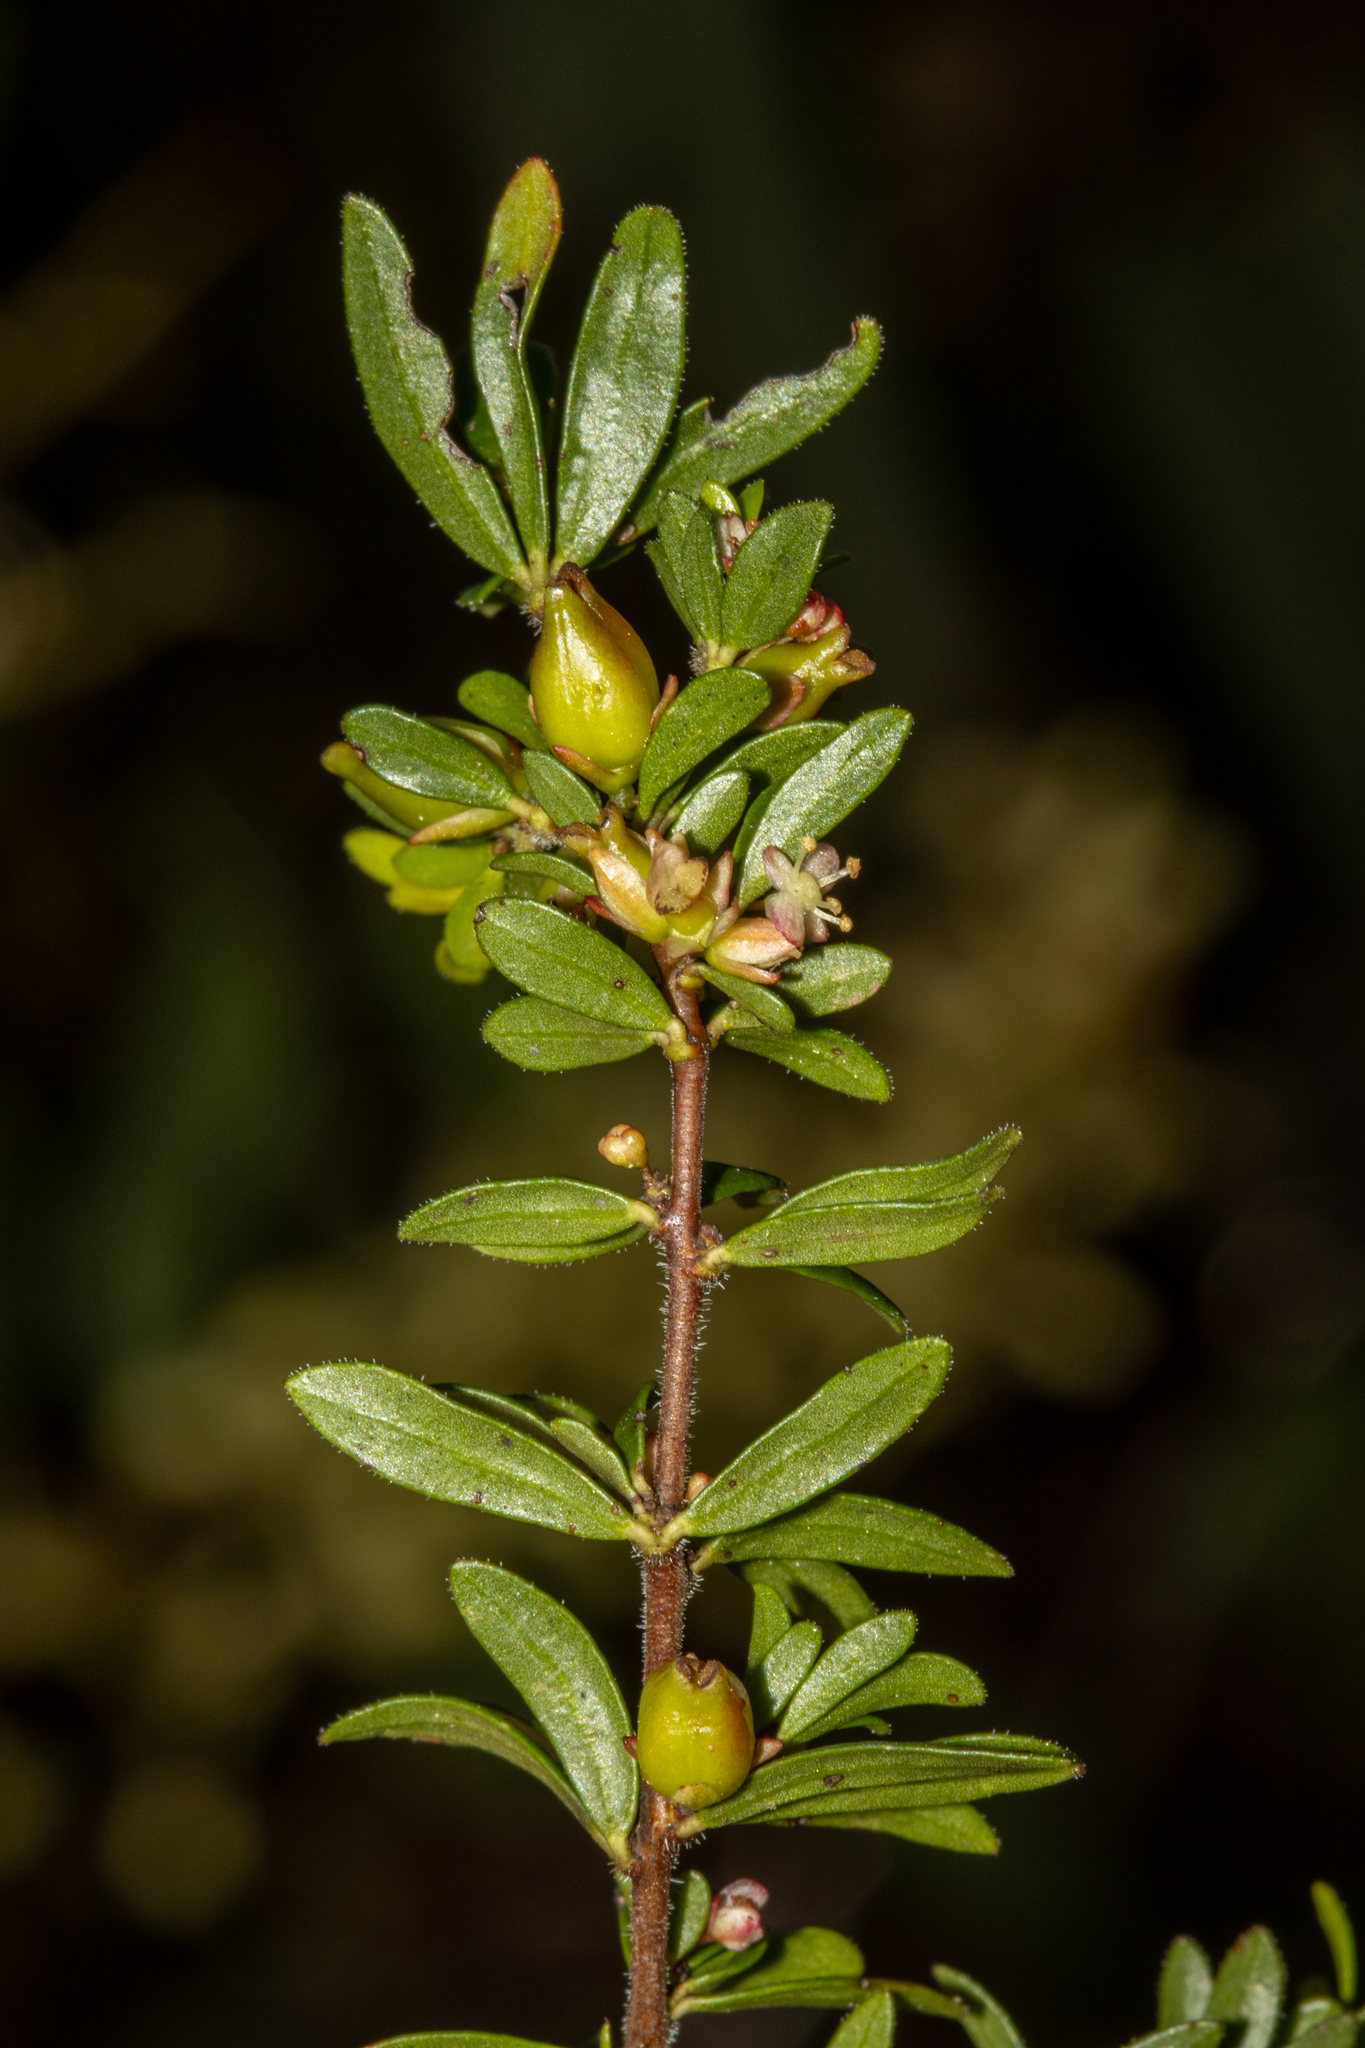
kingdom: Plantae
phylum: Tracheophyta
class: Magnoliopsida
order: Malpighiales
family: Picrodendraceae
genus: Micrantheum
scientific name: Micrantheum demissum
